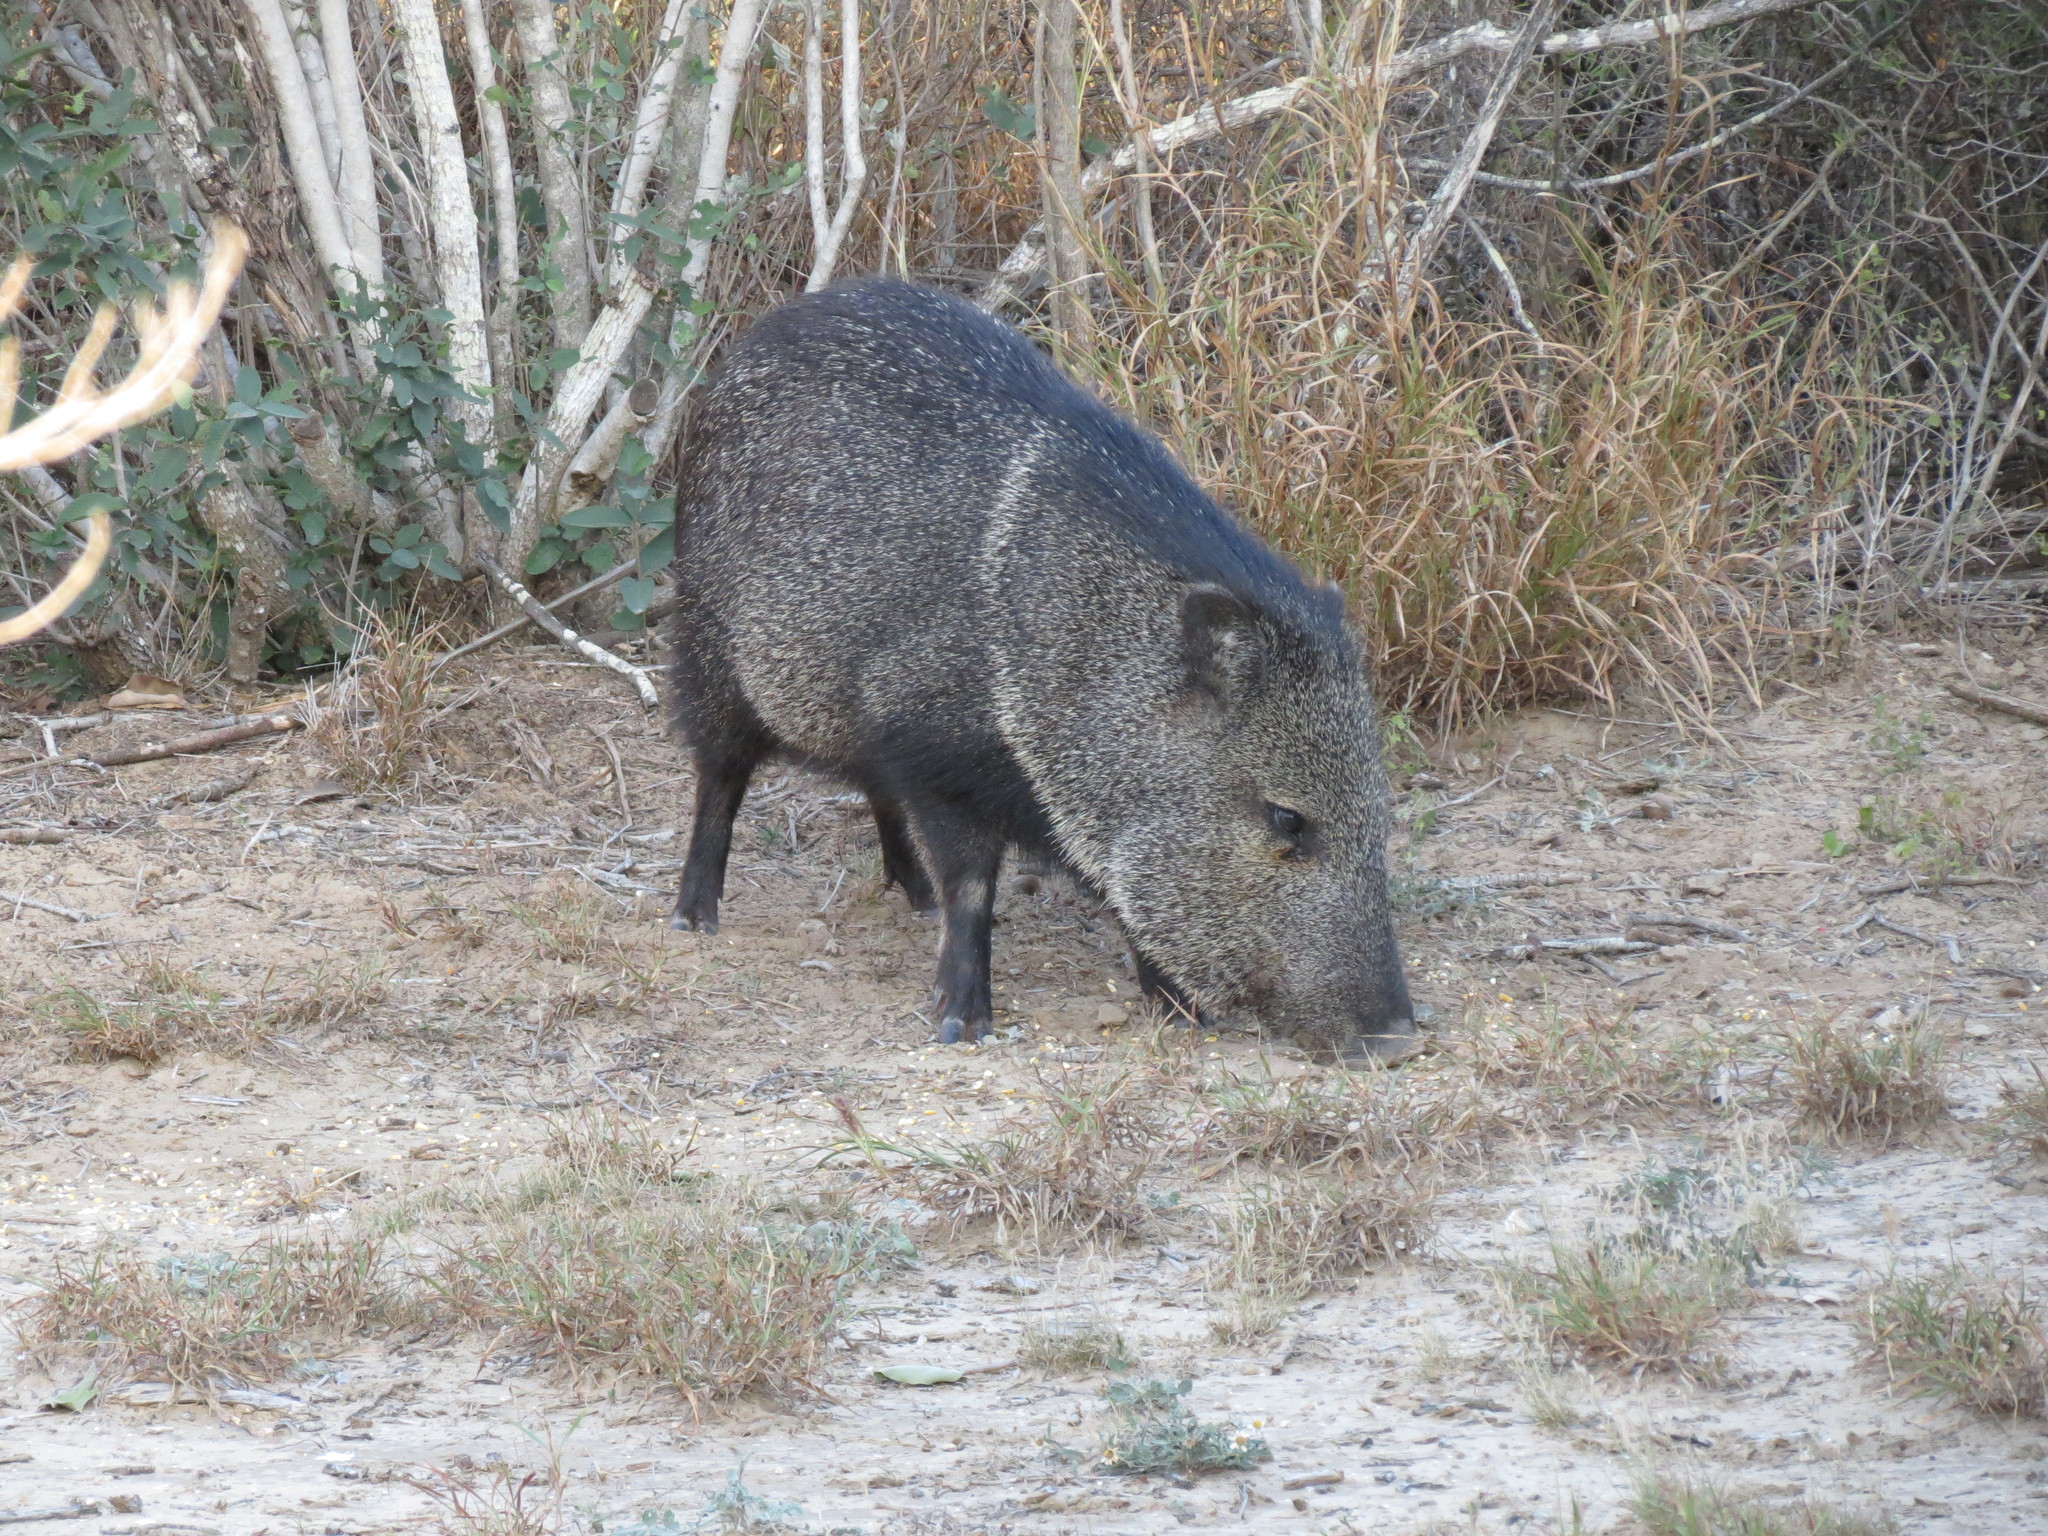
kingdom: Animalia
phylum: Chordata
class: Mammalia
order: Artiodactyla
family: Tayassuidae
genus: Pecari
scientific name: Pecari tajacu
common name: Collared peccary
